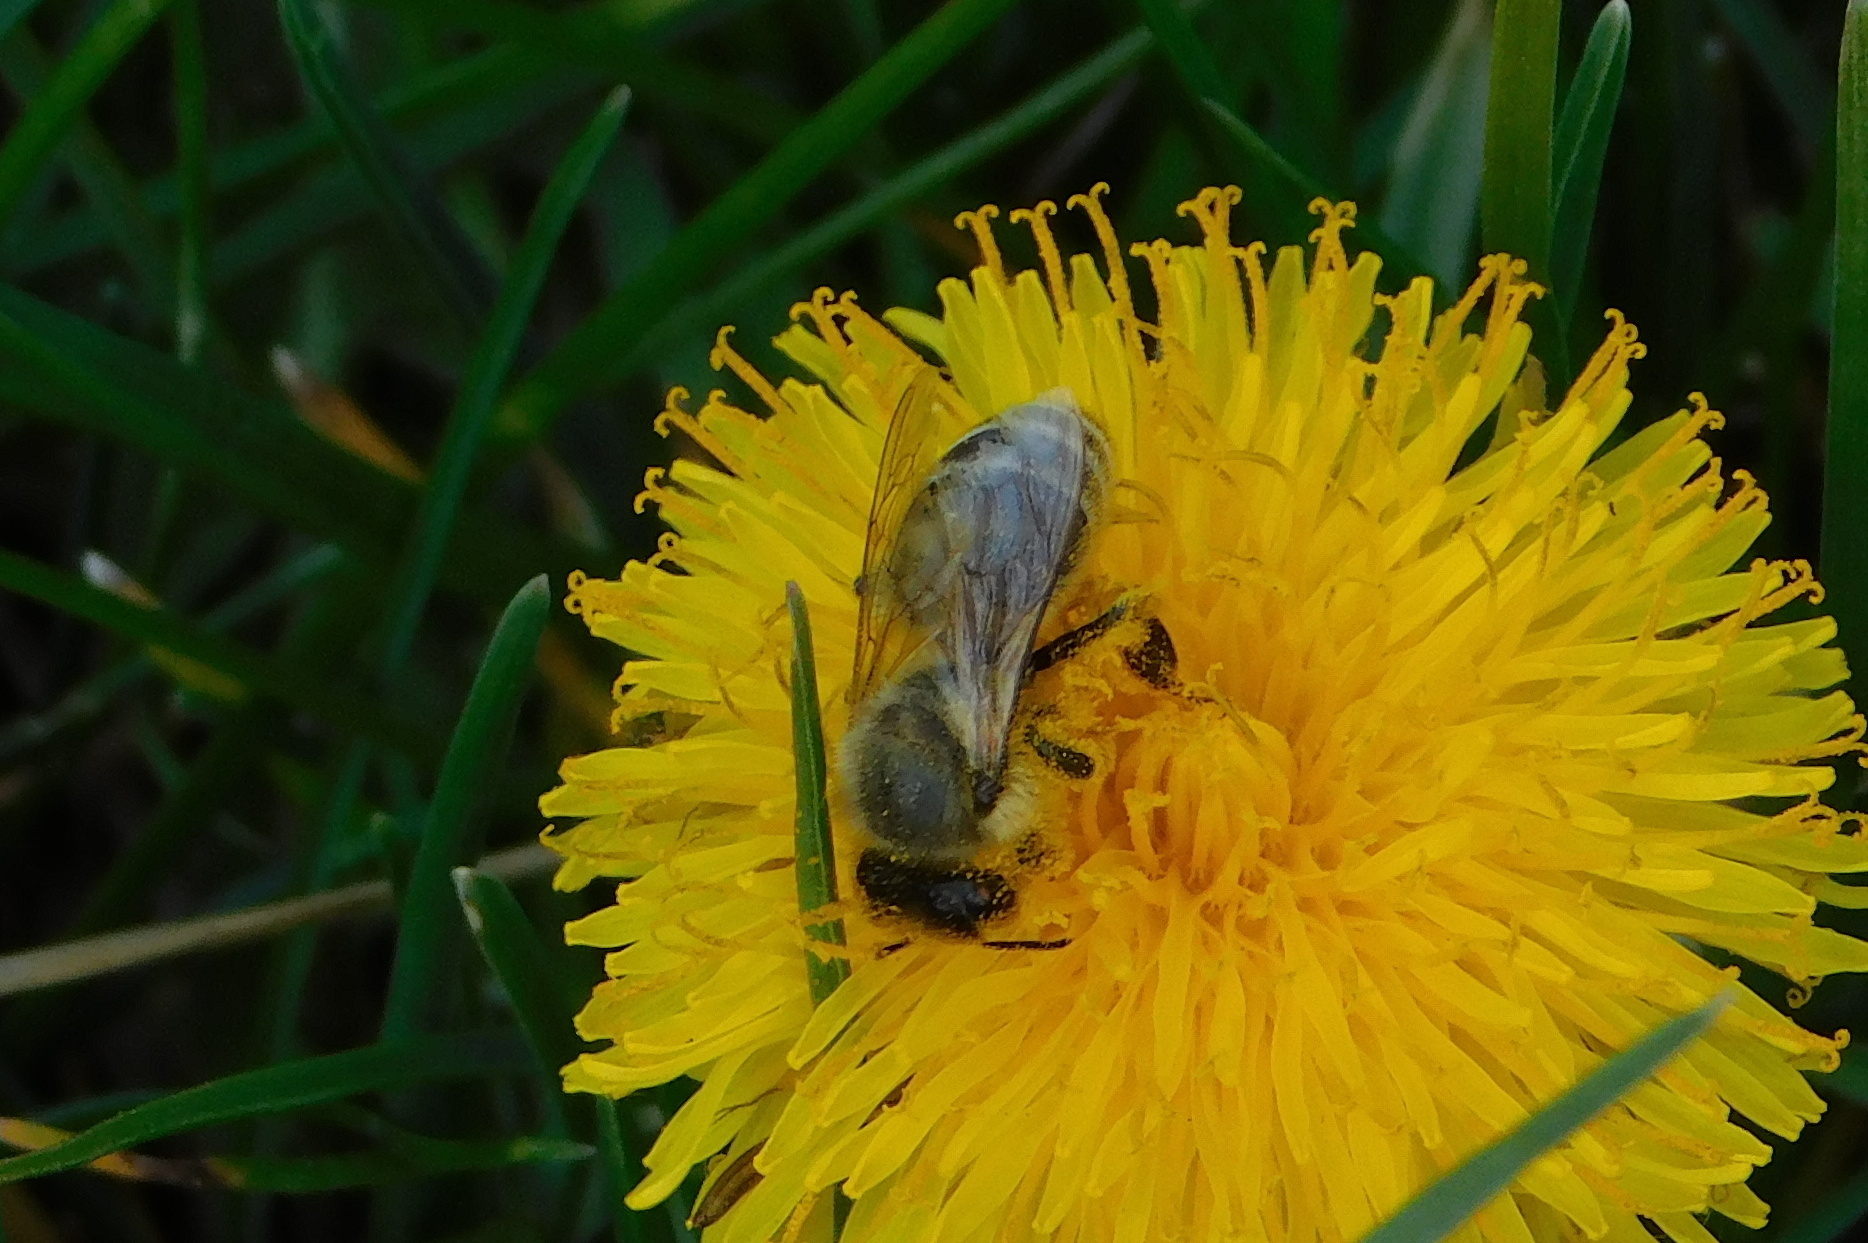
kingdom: Animalia
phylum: Arthropoda
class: Insecta
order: Hymenoptera
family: Apidae
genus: Apis
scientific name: Apis mellifera
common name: Honey bee
